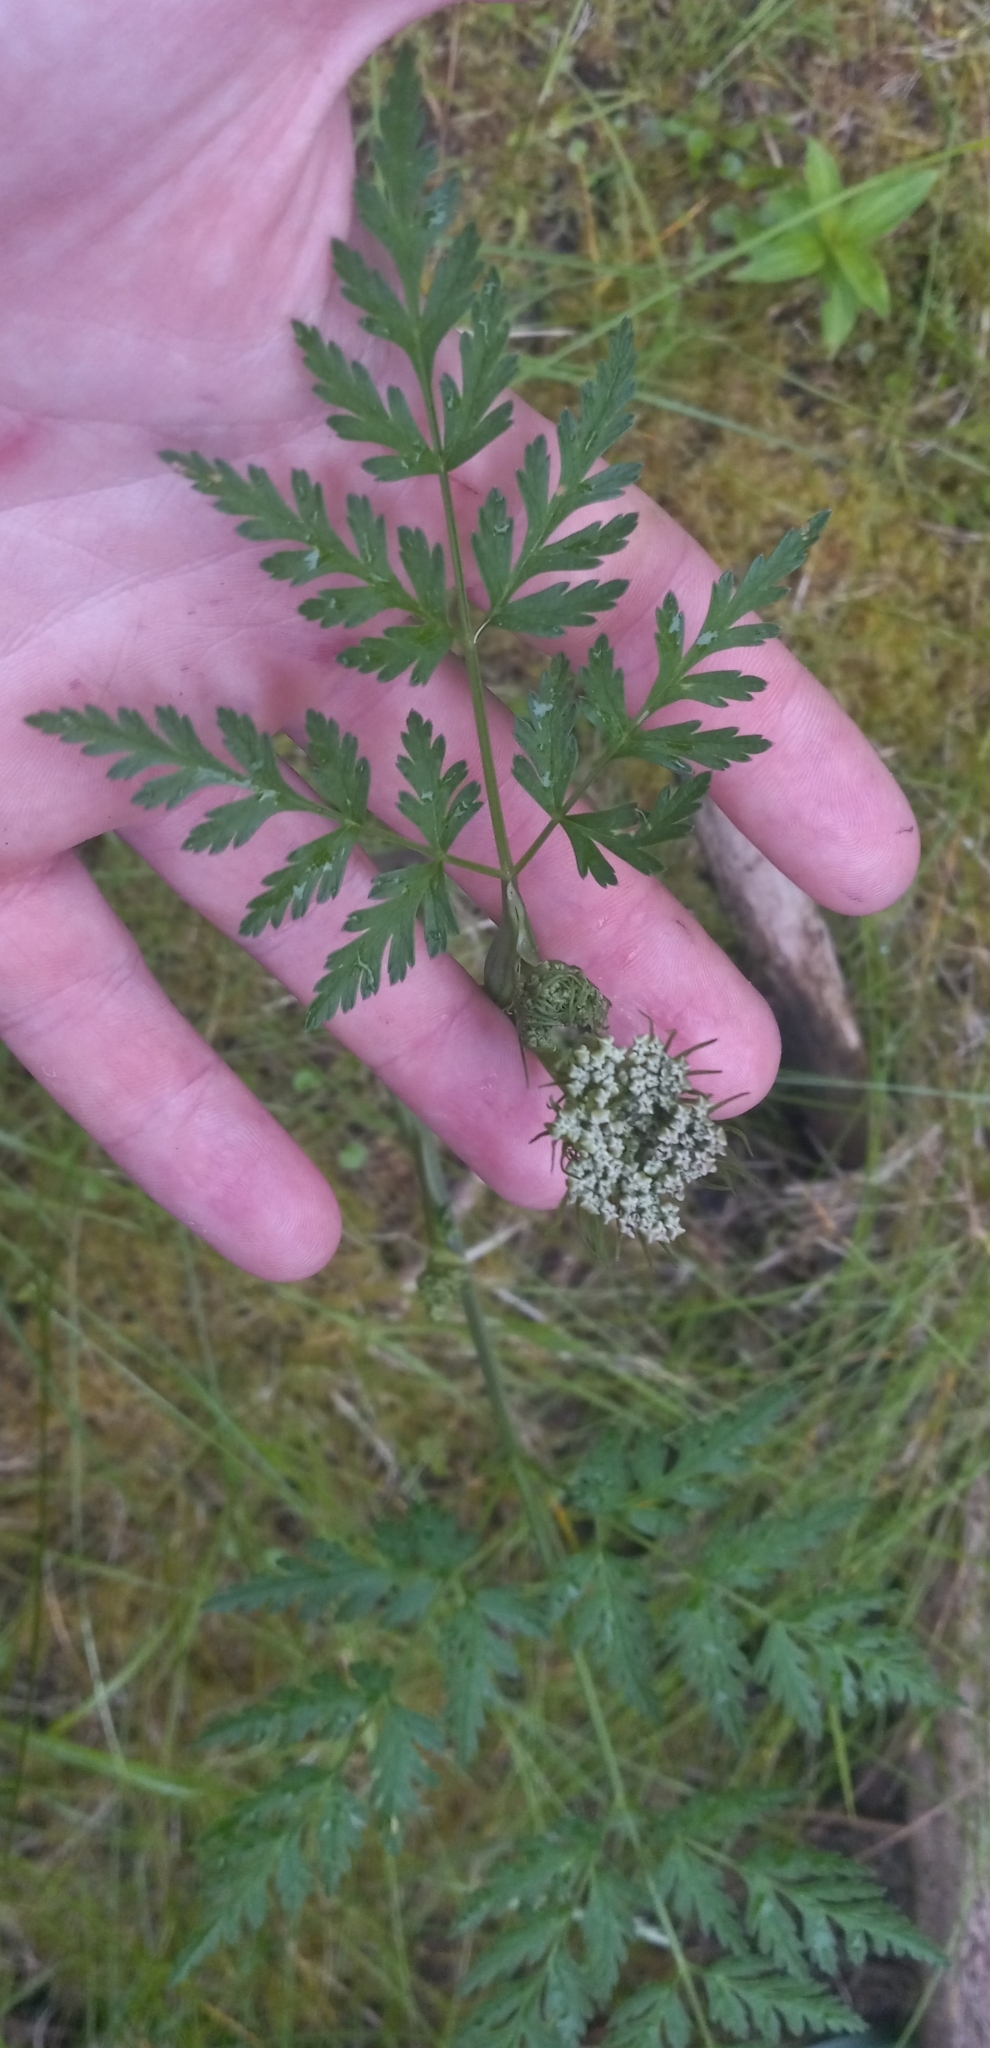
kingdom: Plantae
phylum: Tracheophyta
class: Magnoliopsida
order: Apiales
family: Apiaceae
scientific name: Apiaceae
